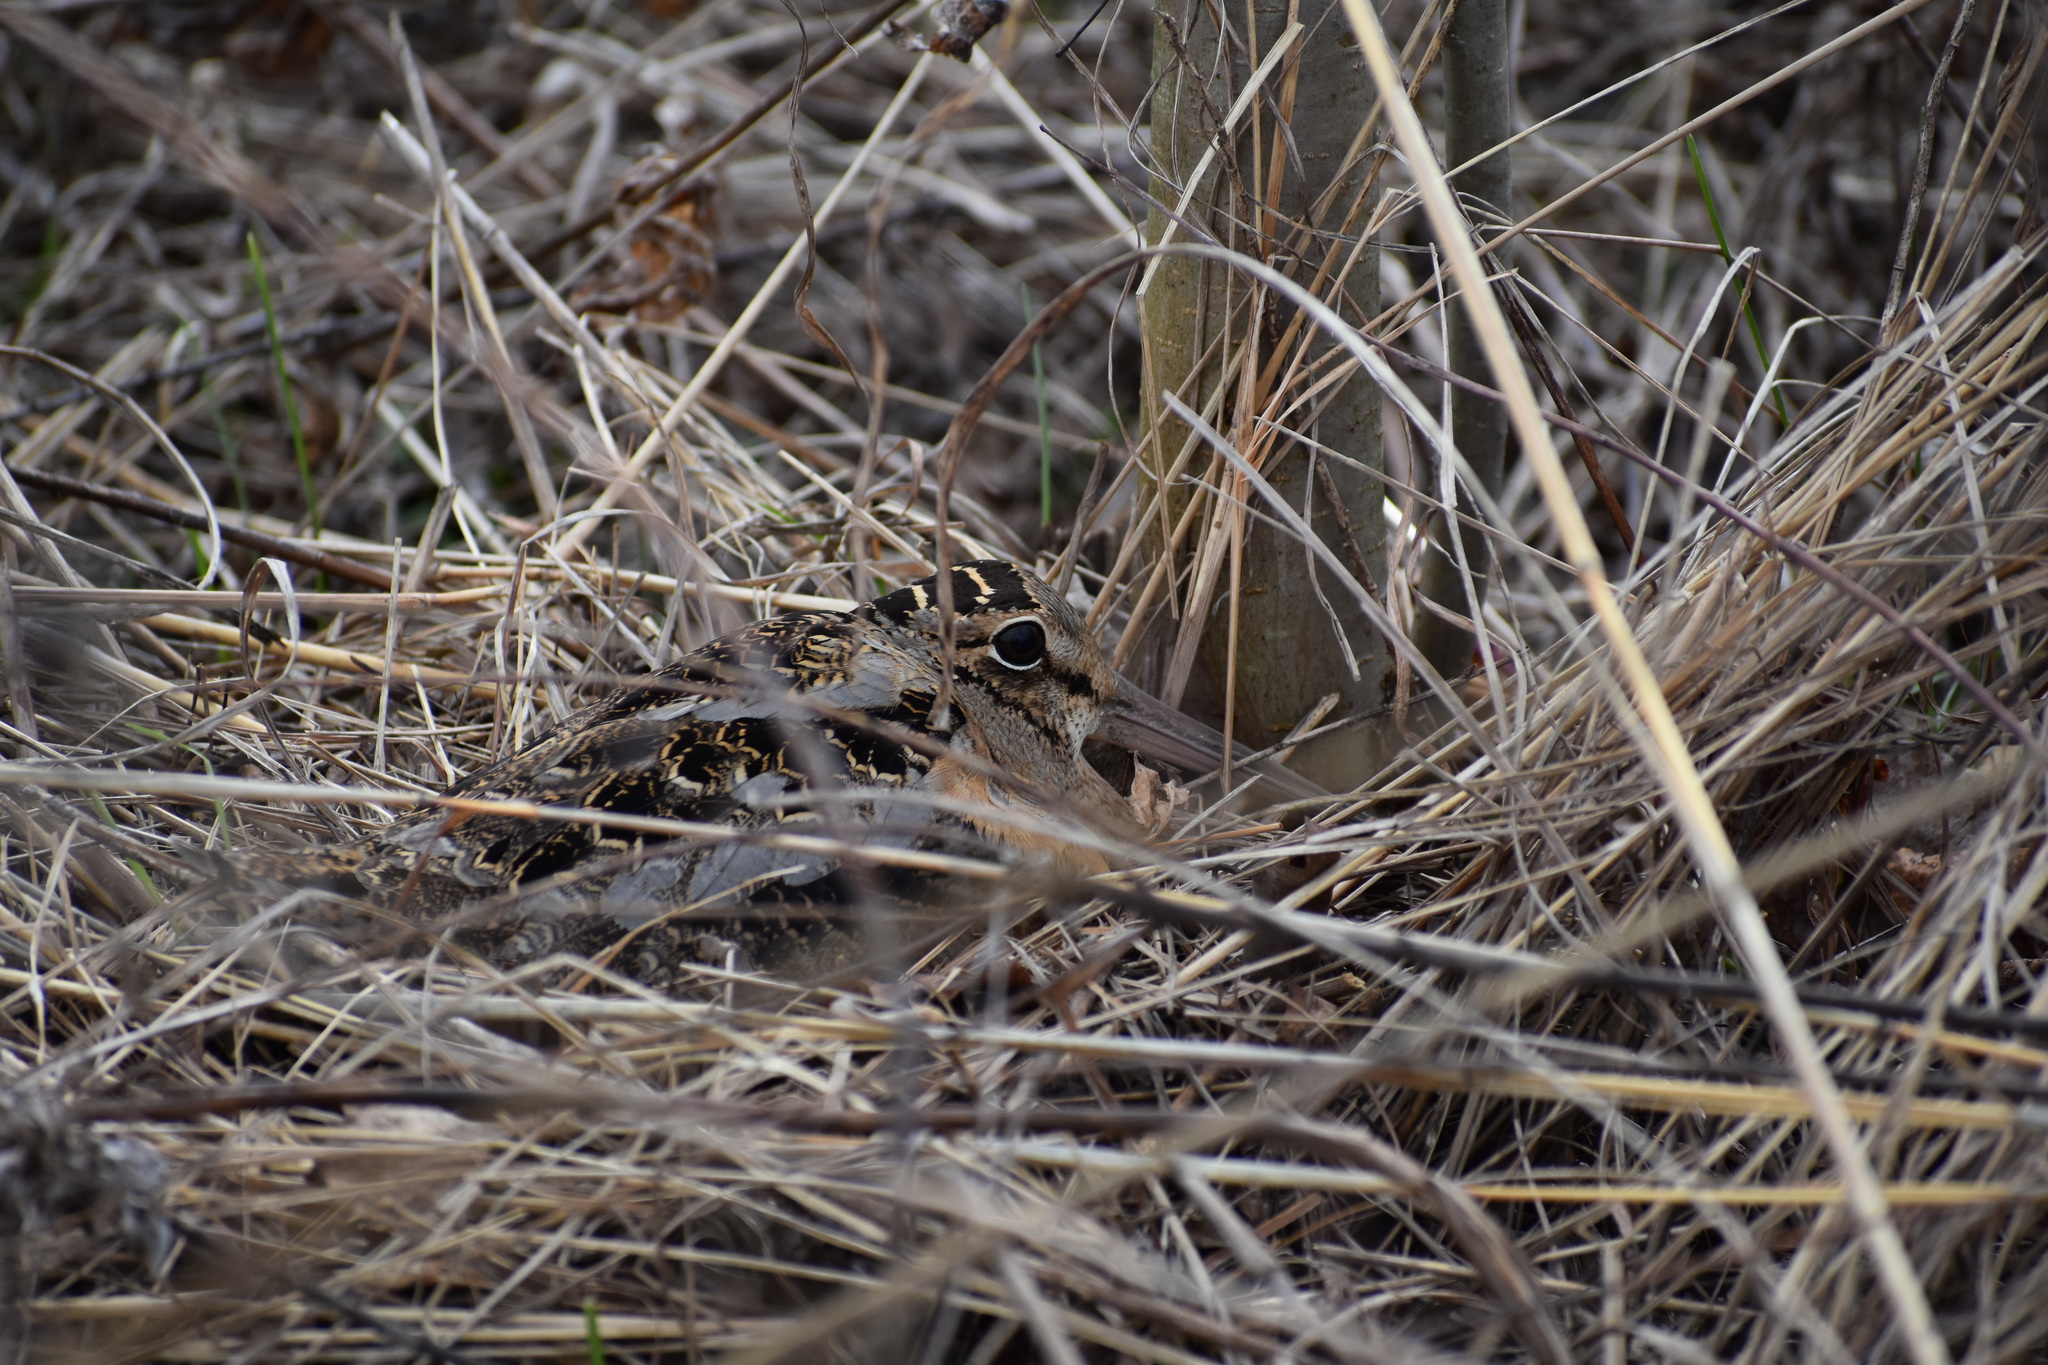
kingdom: Animalia
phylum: Chordata
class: Aves
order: Charadriiformes
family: Scolopacidae
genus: Scolopax
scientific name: Scolopax minor
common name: American woodcock
